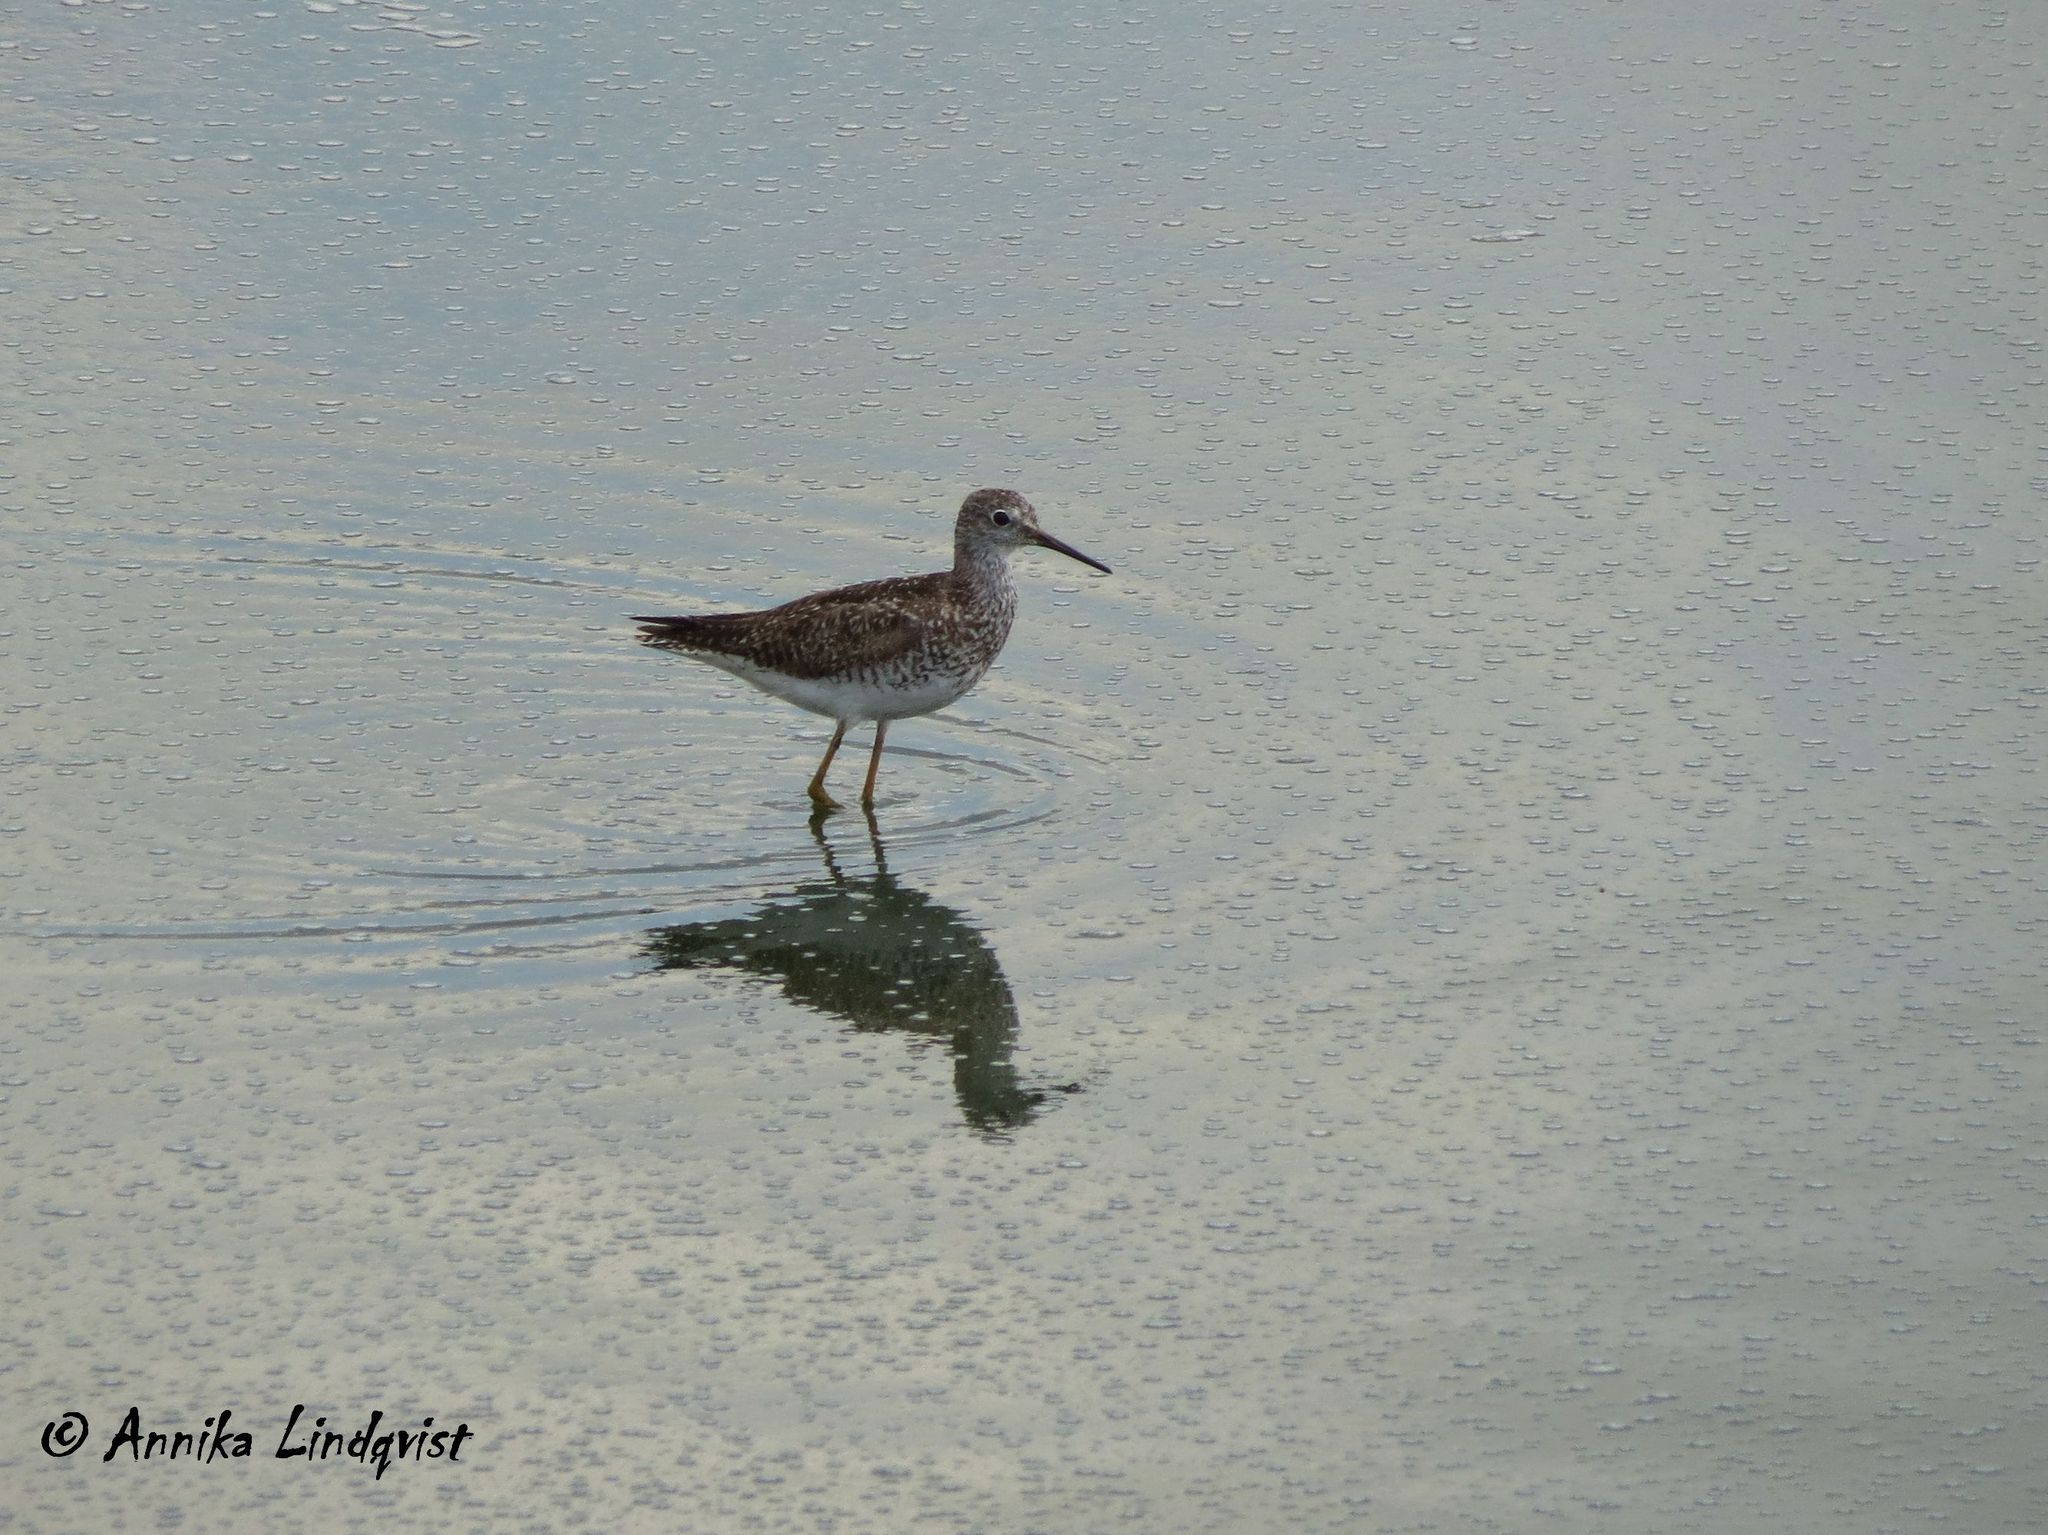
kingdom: Animalia
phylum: Chordata
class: Aves
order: Charadriiformes
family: Scolopacidae
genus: Tringa
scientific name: Tringa flavipes
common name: Lesser yellowlegs
